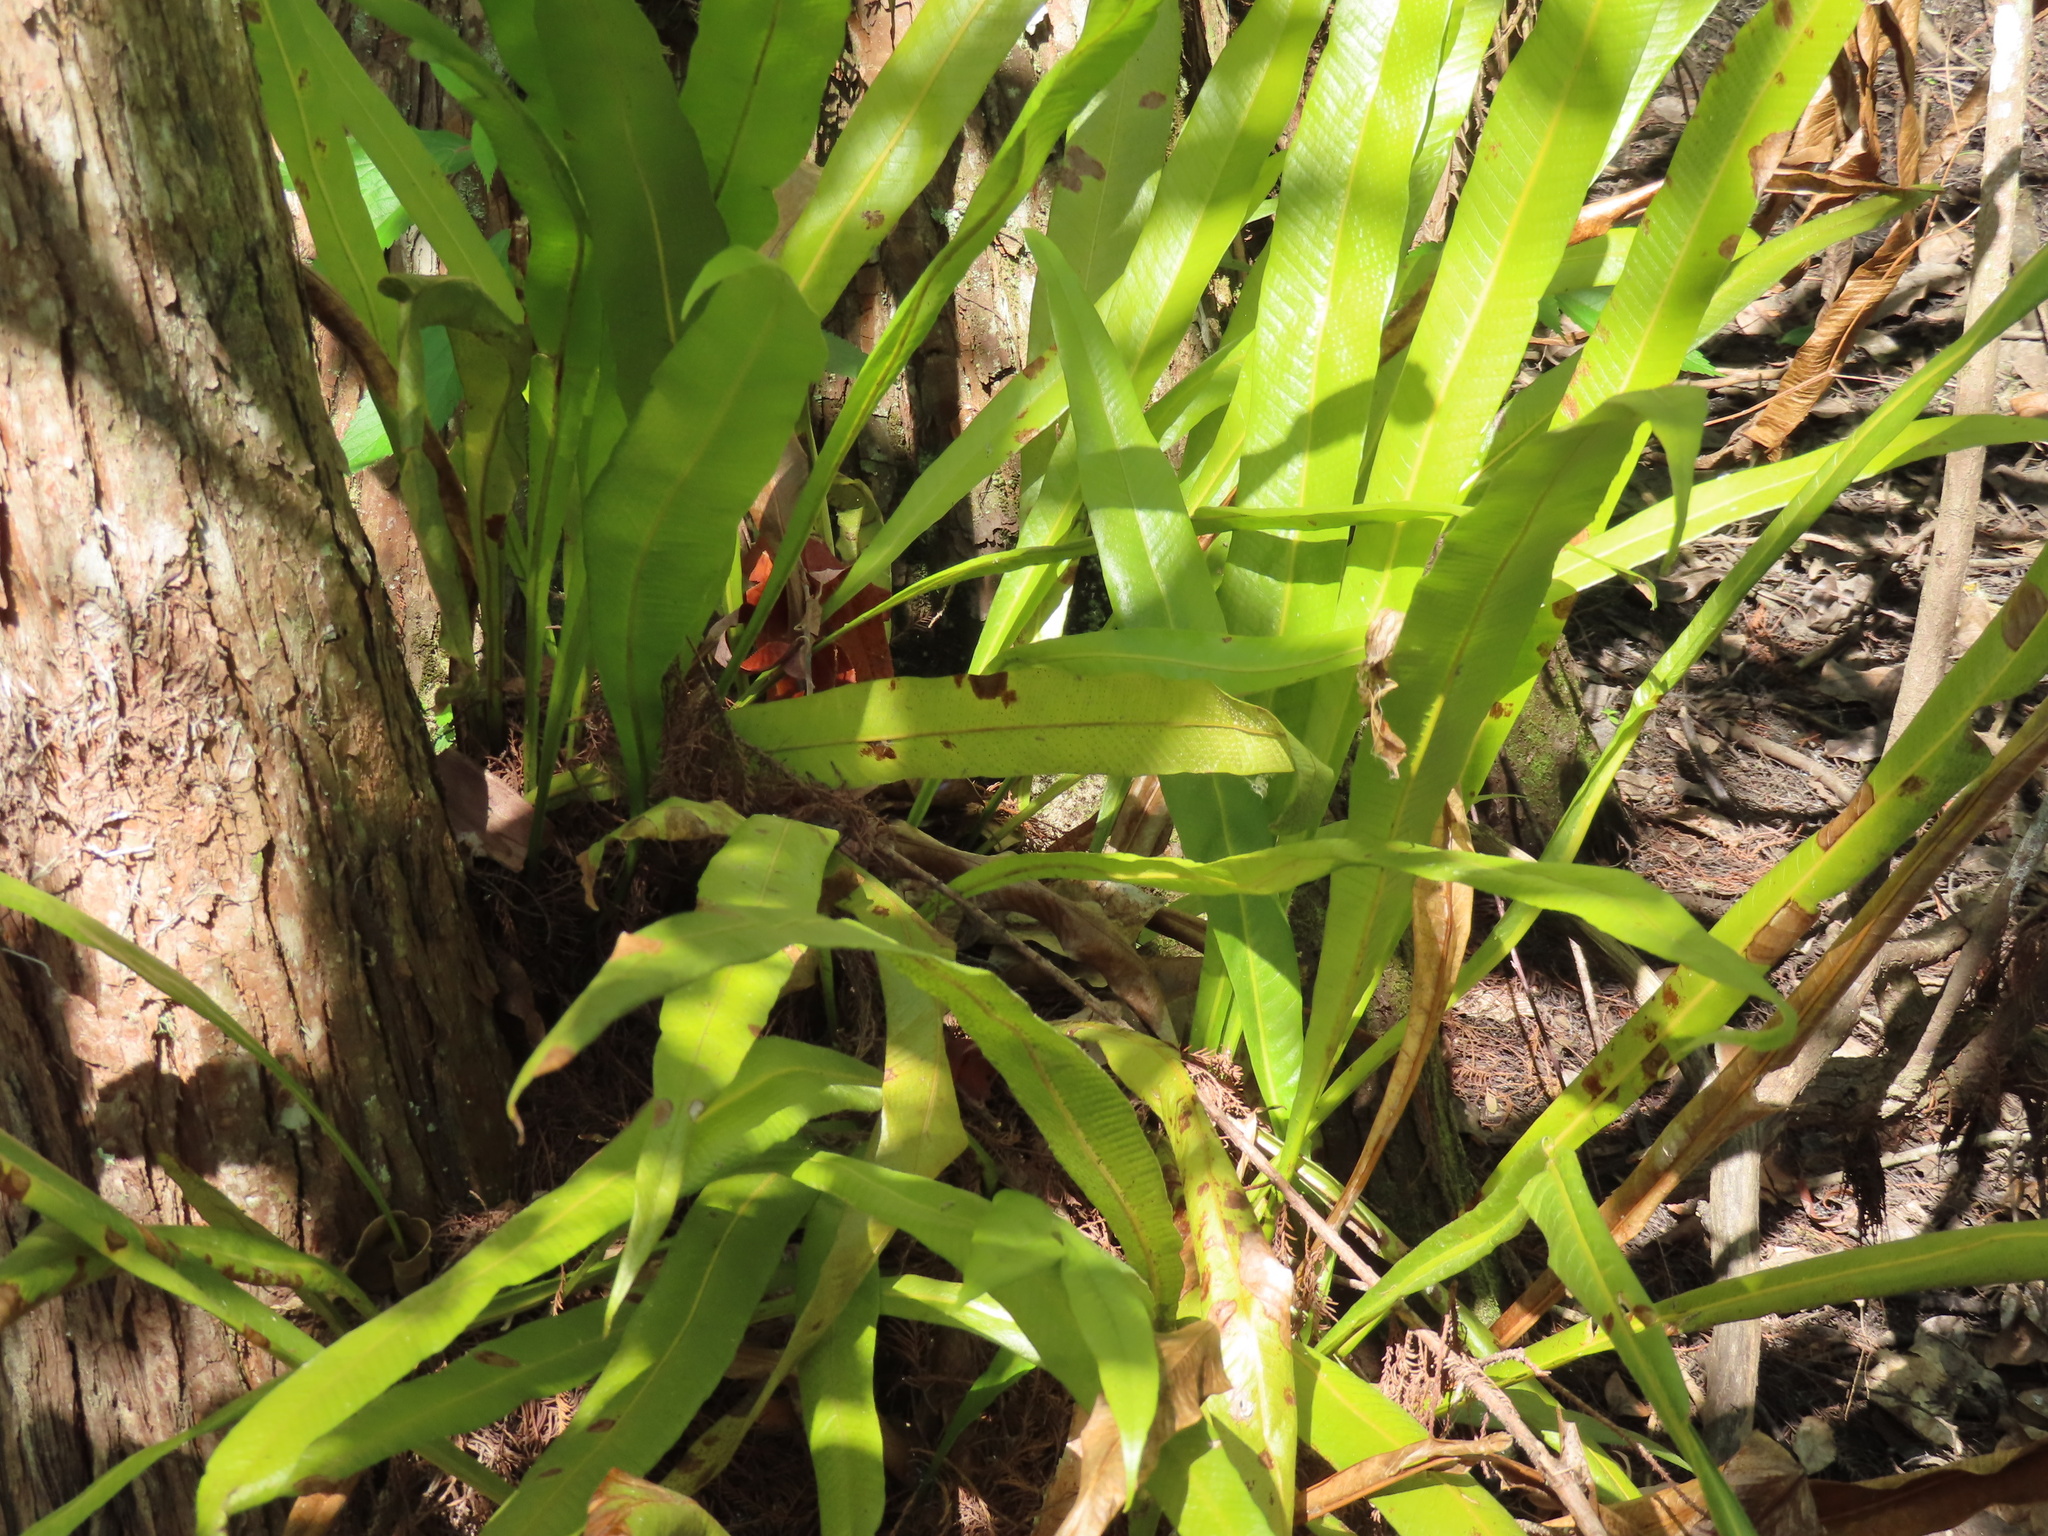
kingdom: Plantae
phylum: Tracheophyta
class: Polypodiopsida
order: Polypodiales
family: Polypodiaceae
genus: Campyloneurum
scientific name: Campyloneurum phyllitidis
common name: Cow-tongue fern
